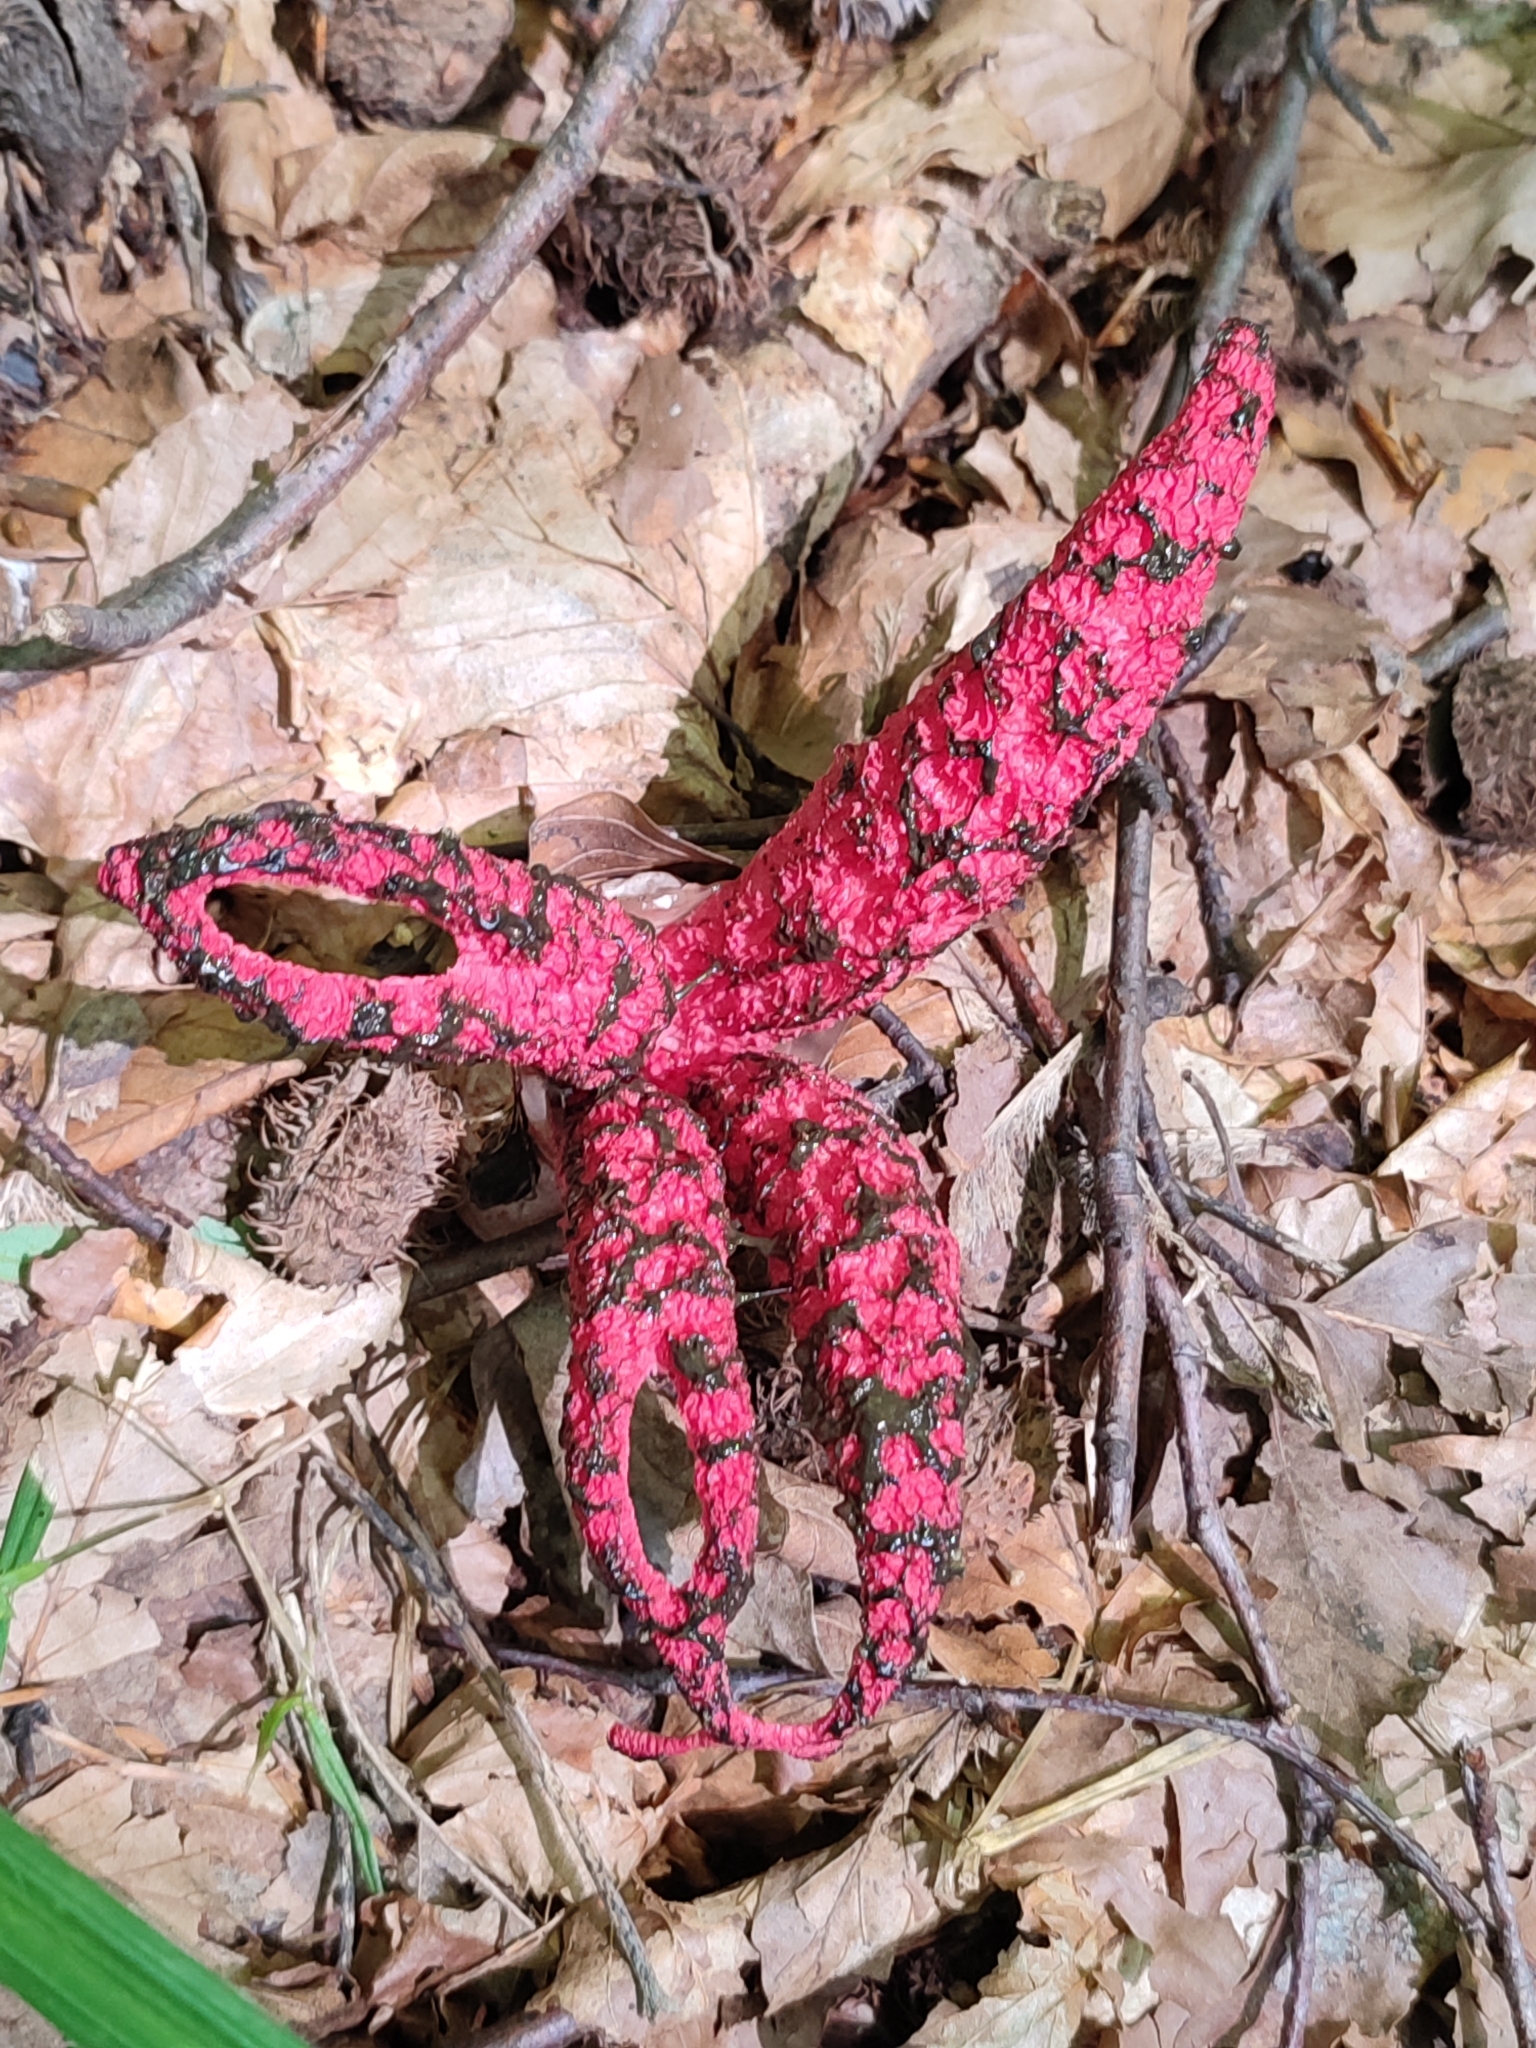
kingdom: Fungi
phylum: Basidiomycota
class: Agaricomycetes
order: Phallales
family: Phallaceae
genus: Clathrus
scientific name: Clathrus archeri
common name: Devil's fingers
